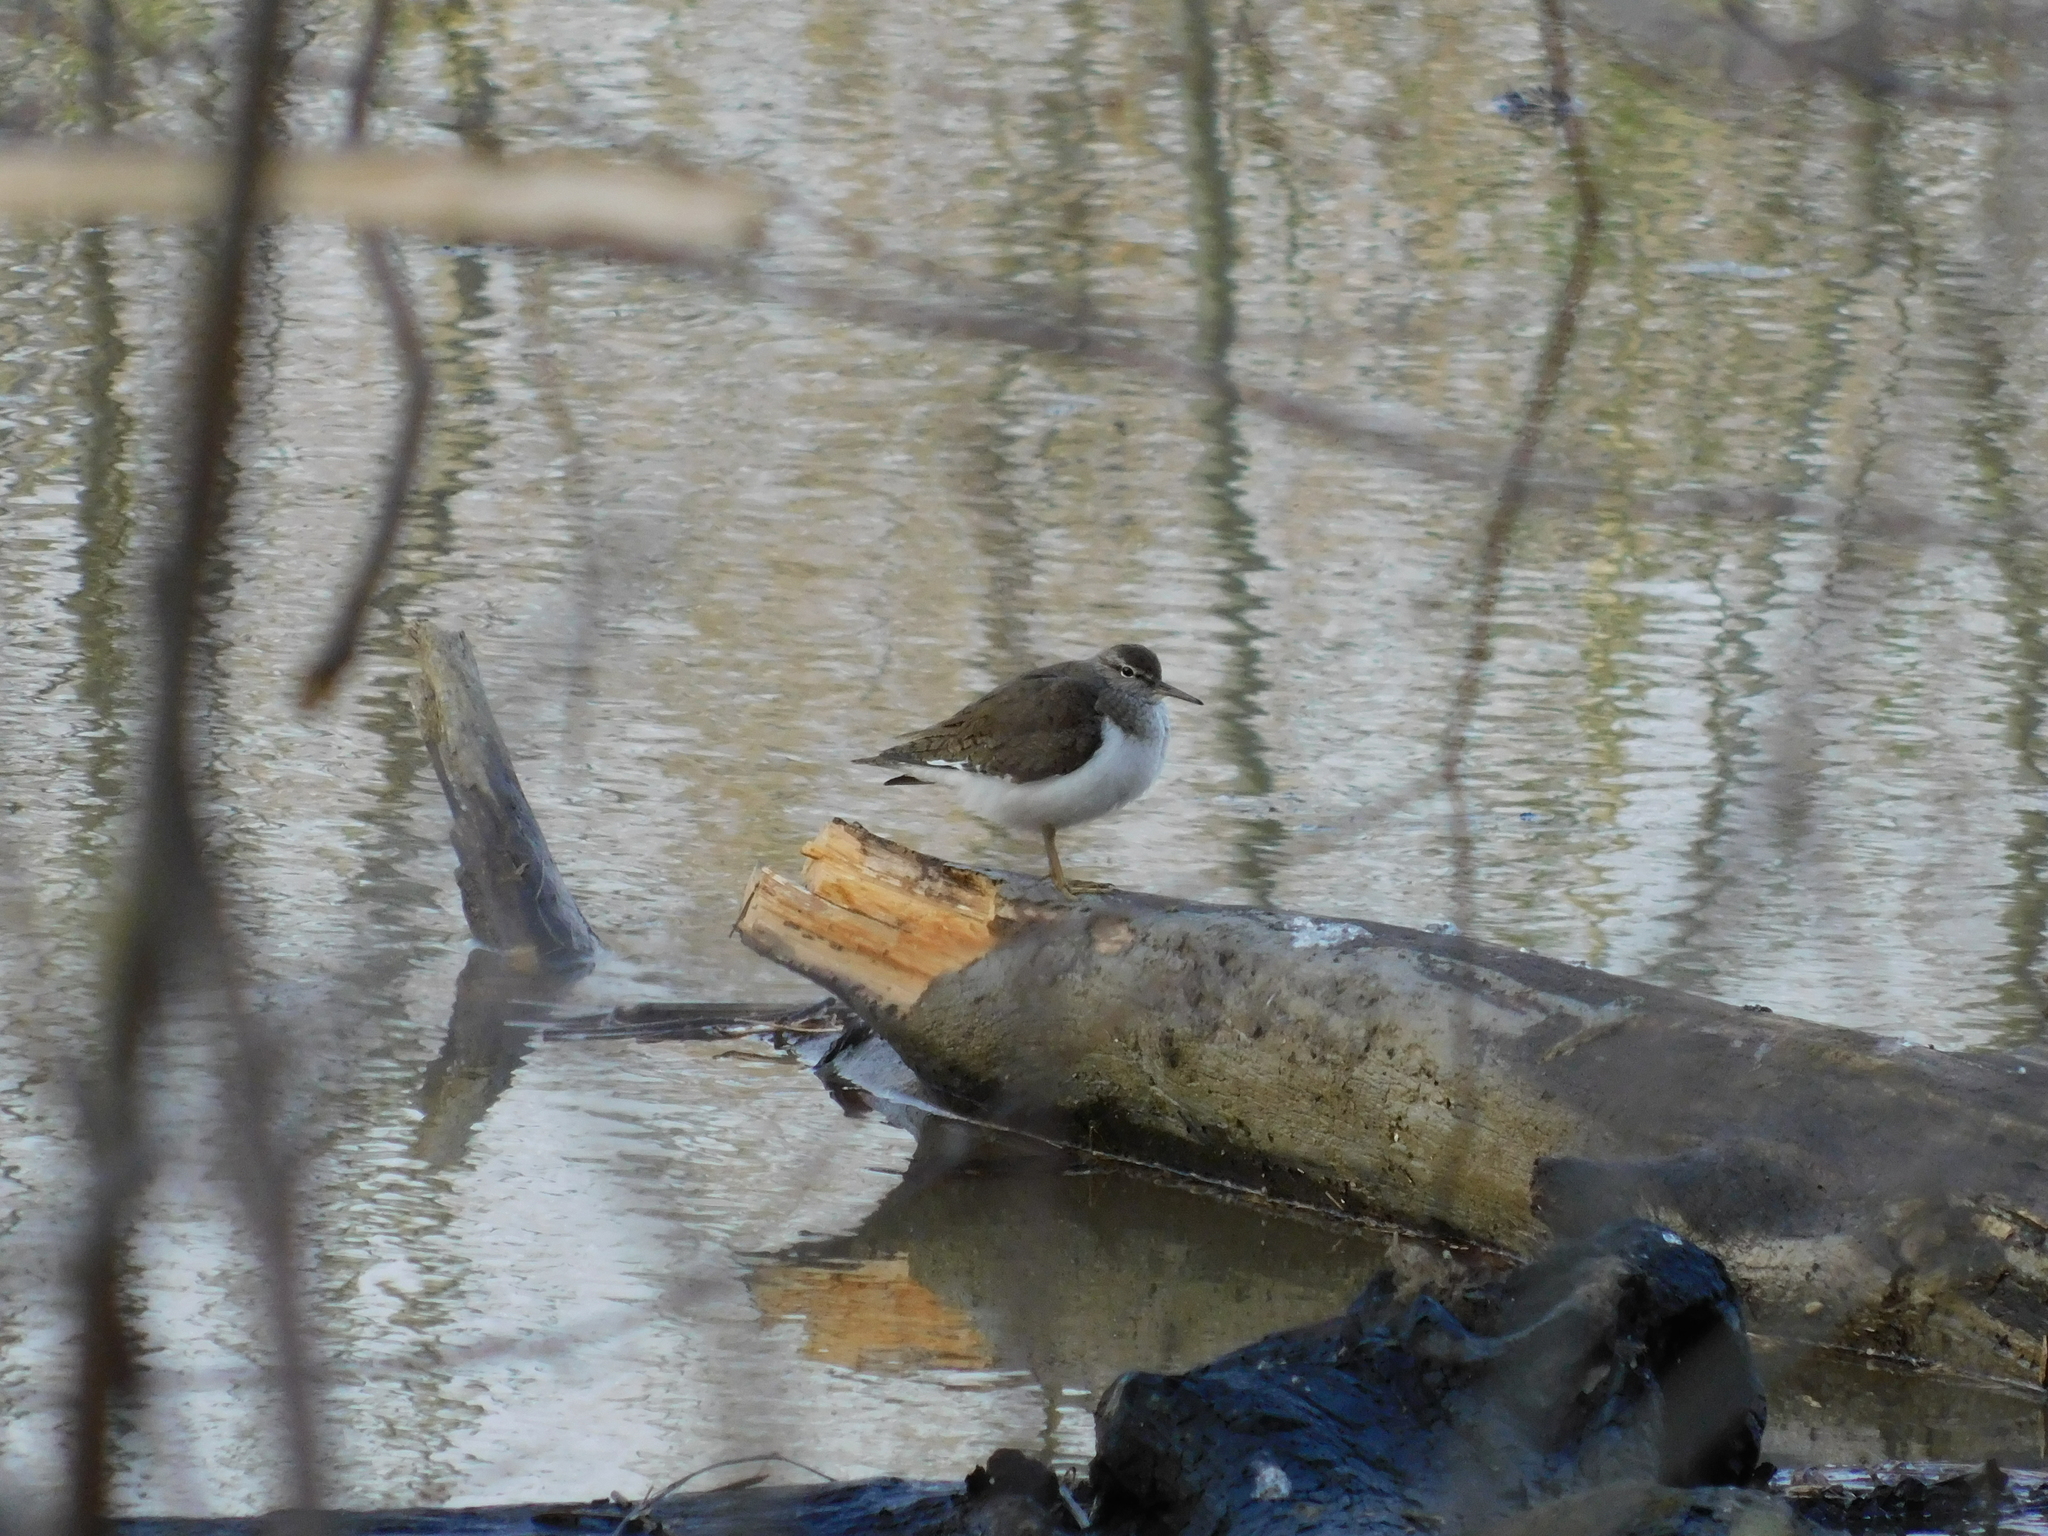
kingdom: Animalia
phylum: Chordata
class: Aves
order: Charadriiformes
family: Scolopacidae
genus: Actitis
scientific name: Actitis hypoleucos
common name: Common sandpiper
